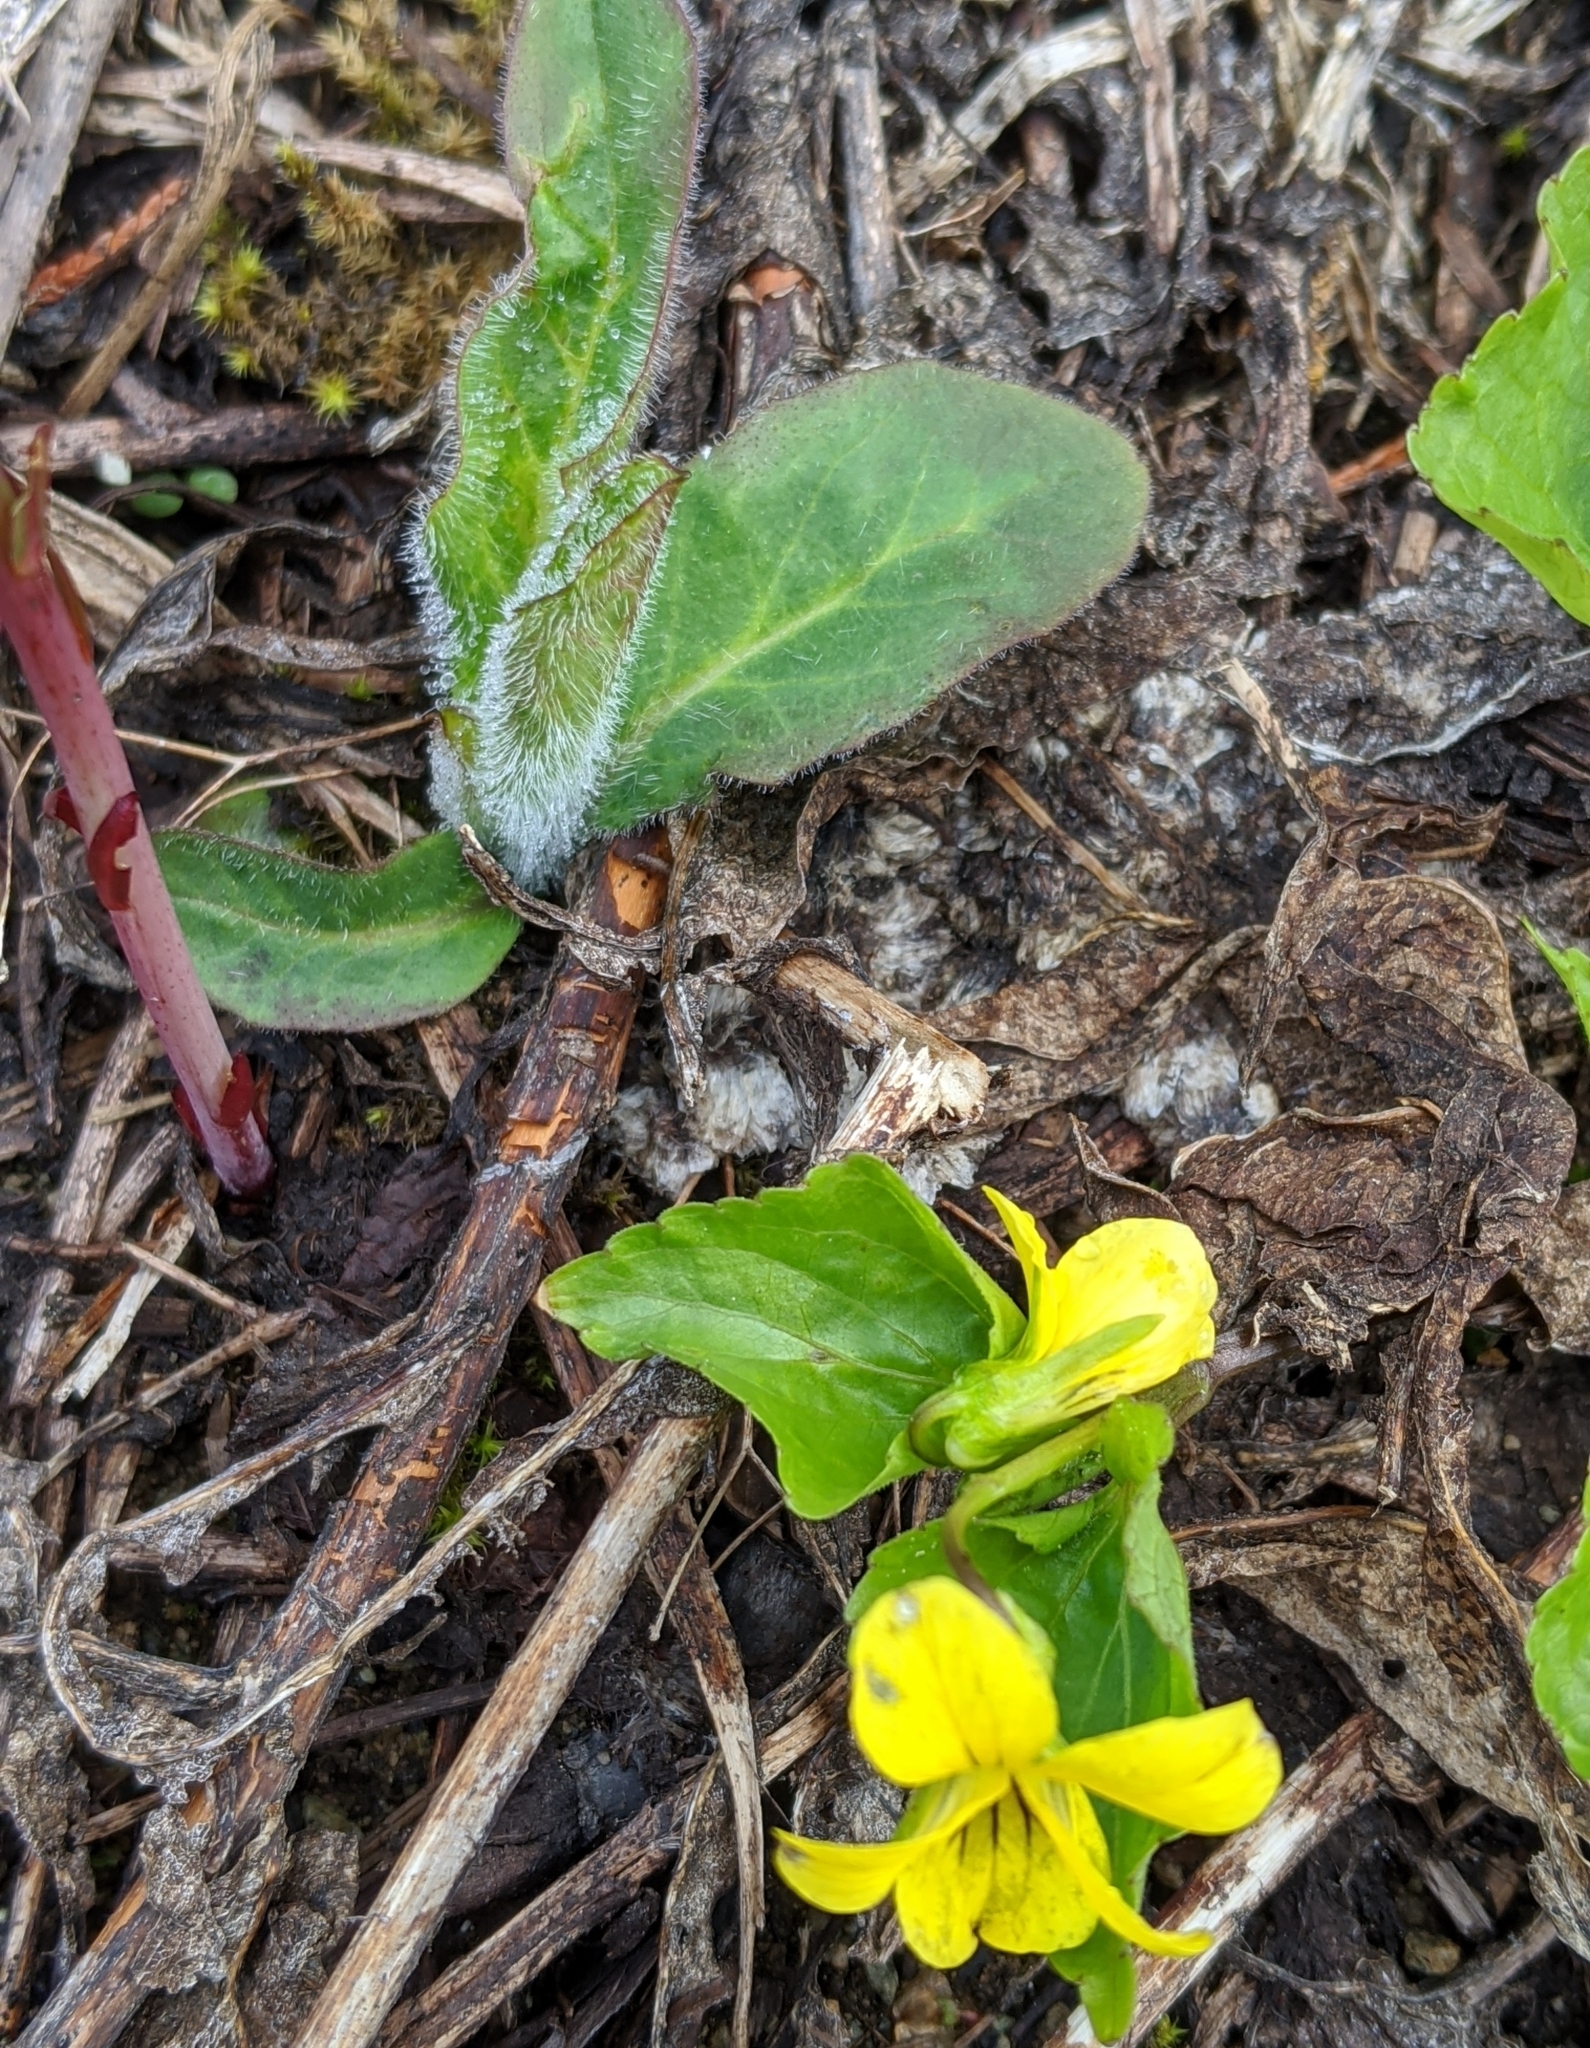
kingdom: Plantae
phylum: Tracheophyta
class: Magnoliopsida
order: Malpighiales
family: Violaceae
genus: Viola
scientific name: Viola glabella
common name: Stream violet
